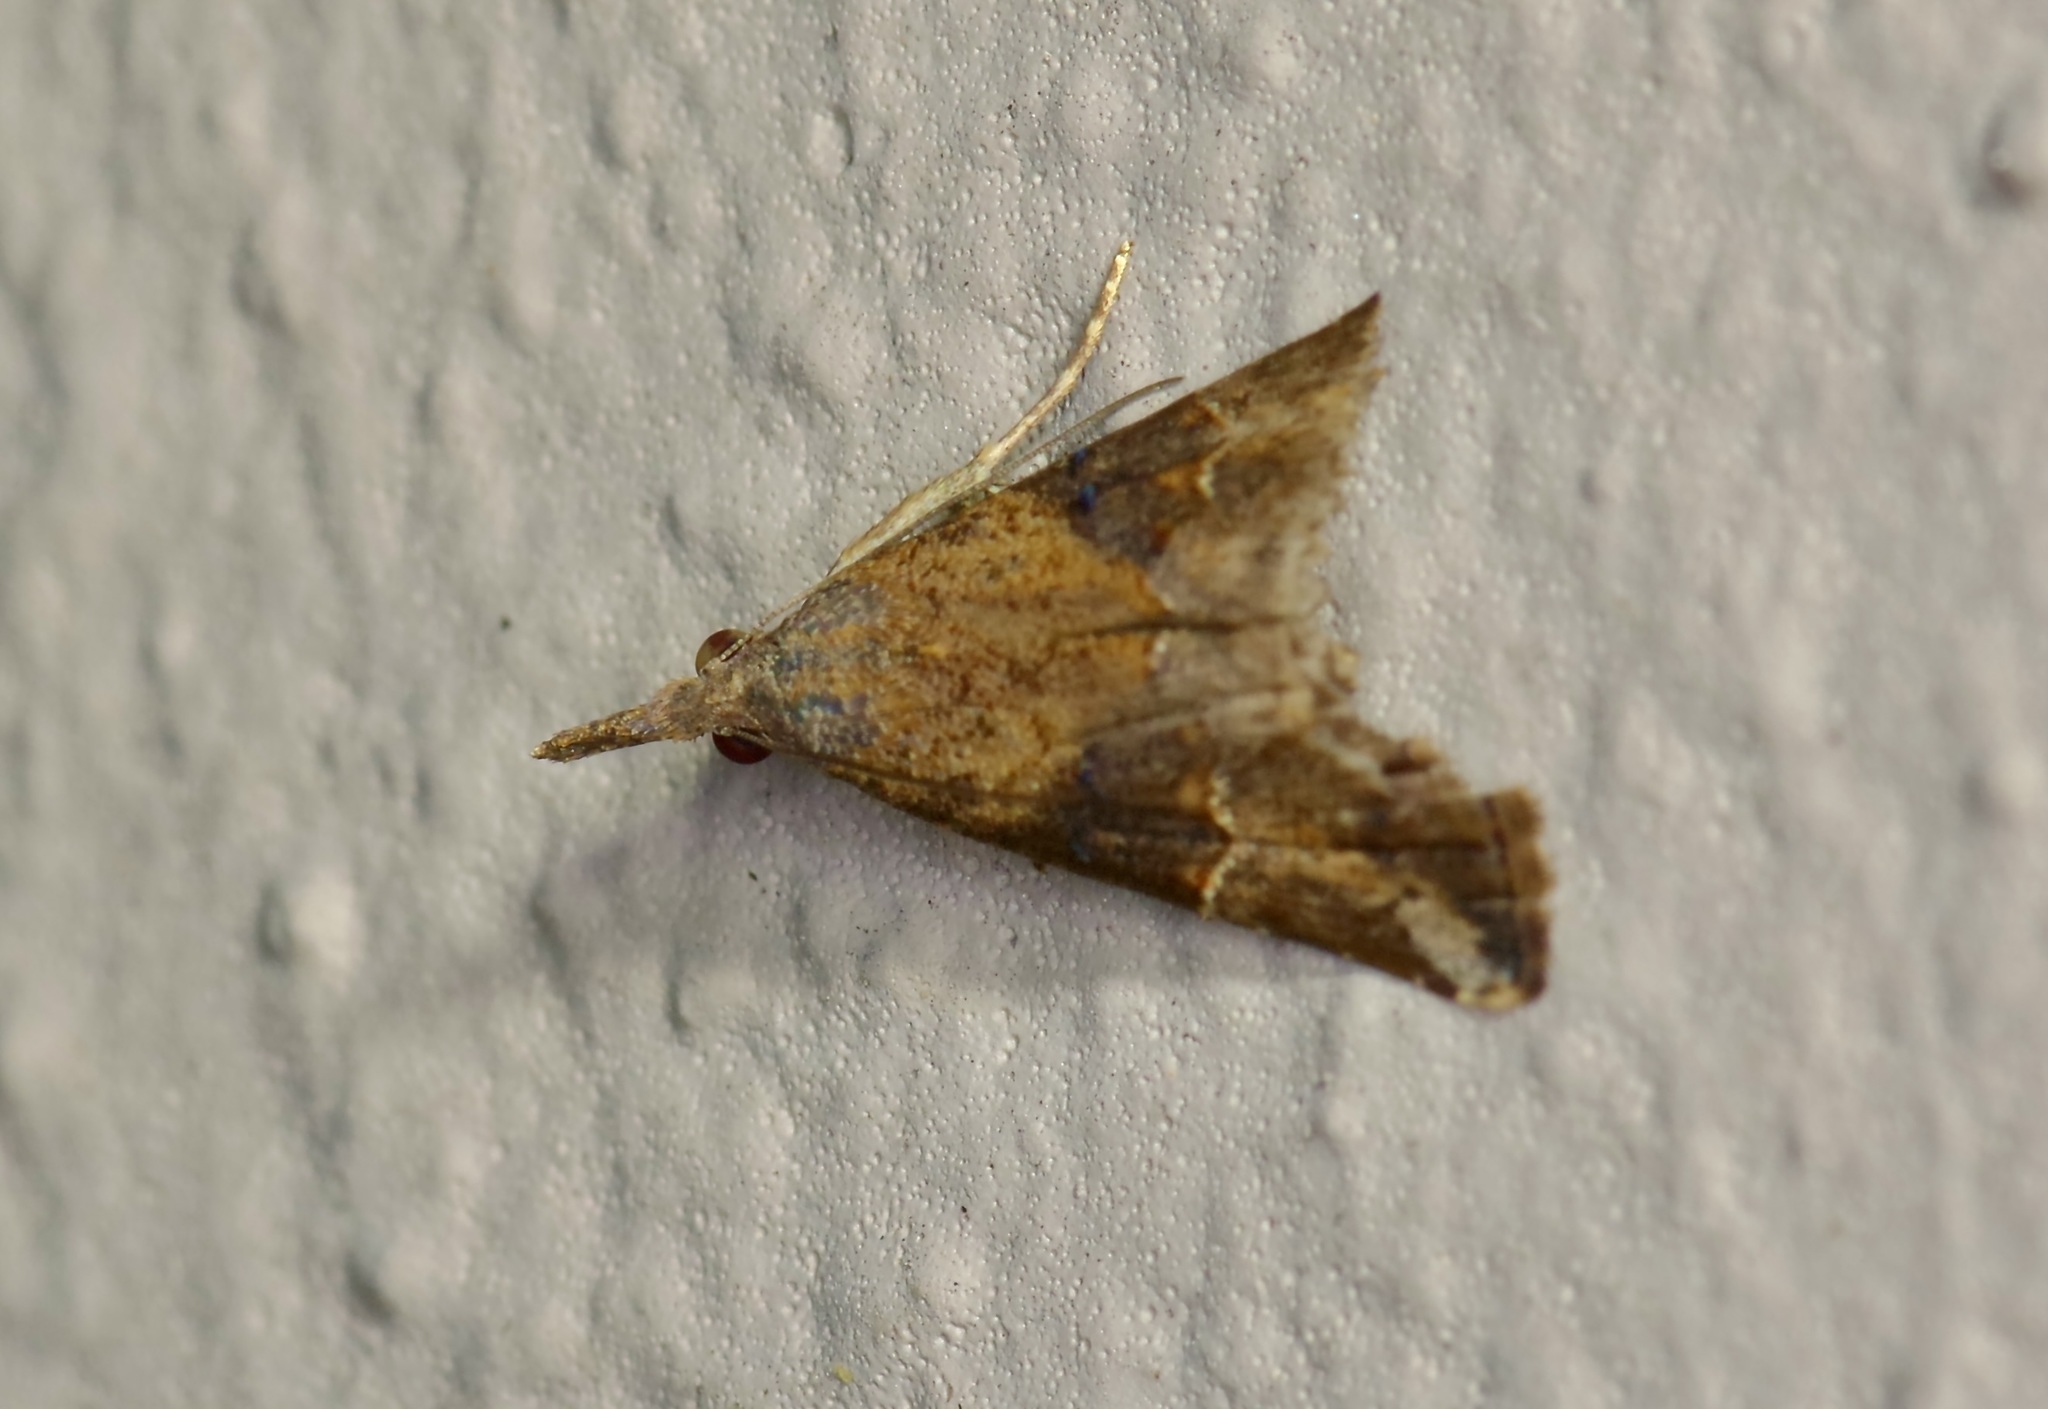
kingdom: Animalia
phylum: Arthropoda
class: Insecta
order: Lepidoptera
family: Erebidae
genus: Hypena
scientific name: Hypena minualis
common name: Sooty snout
